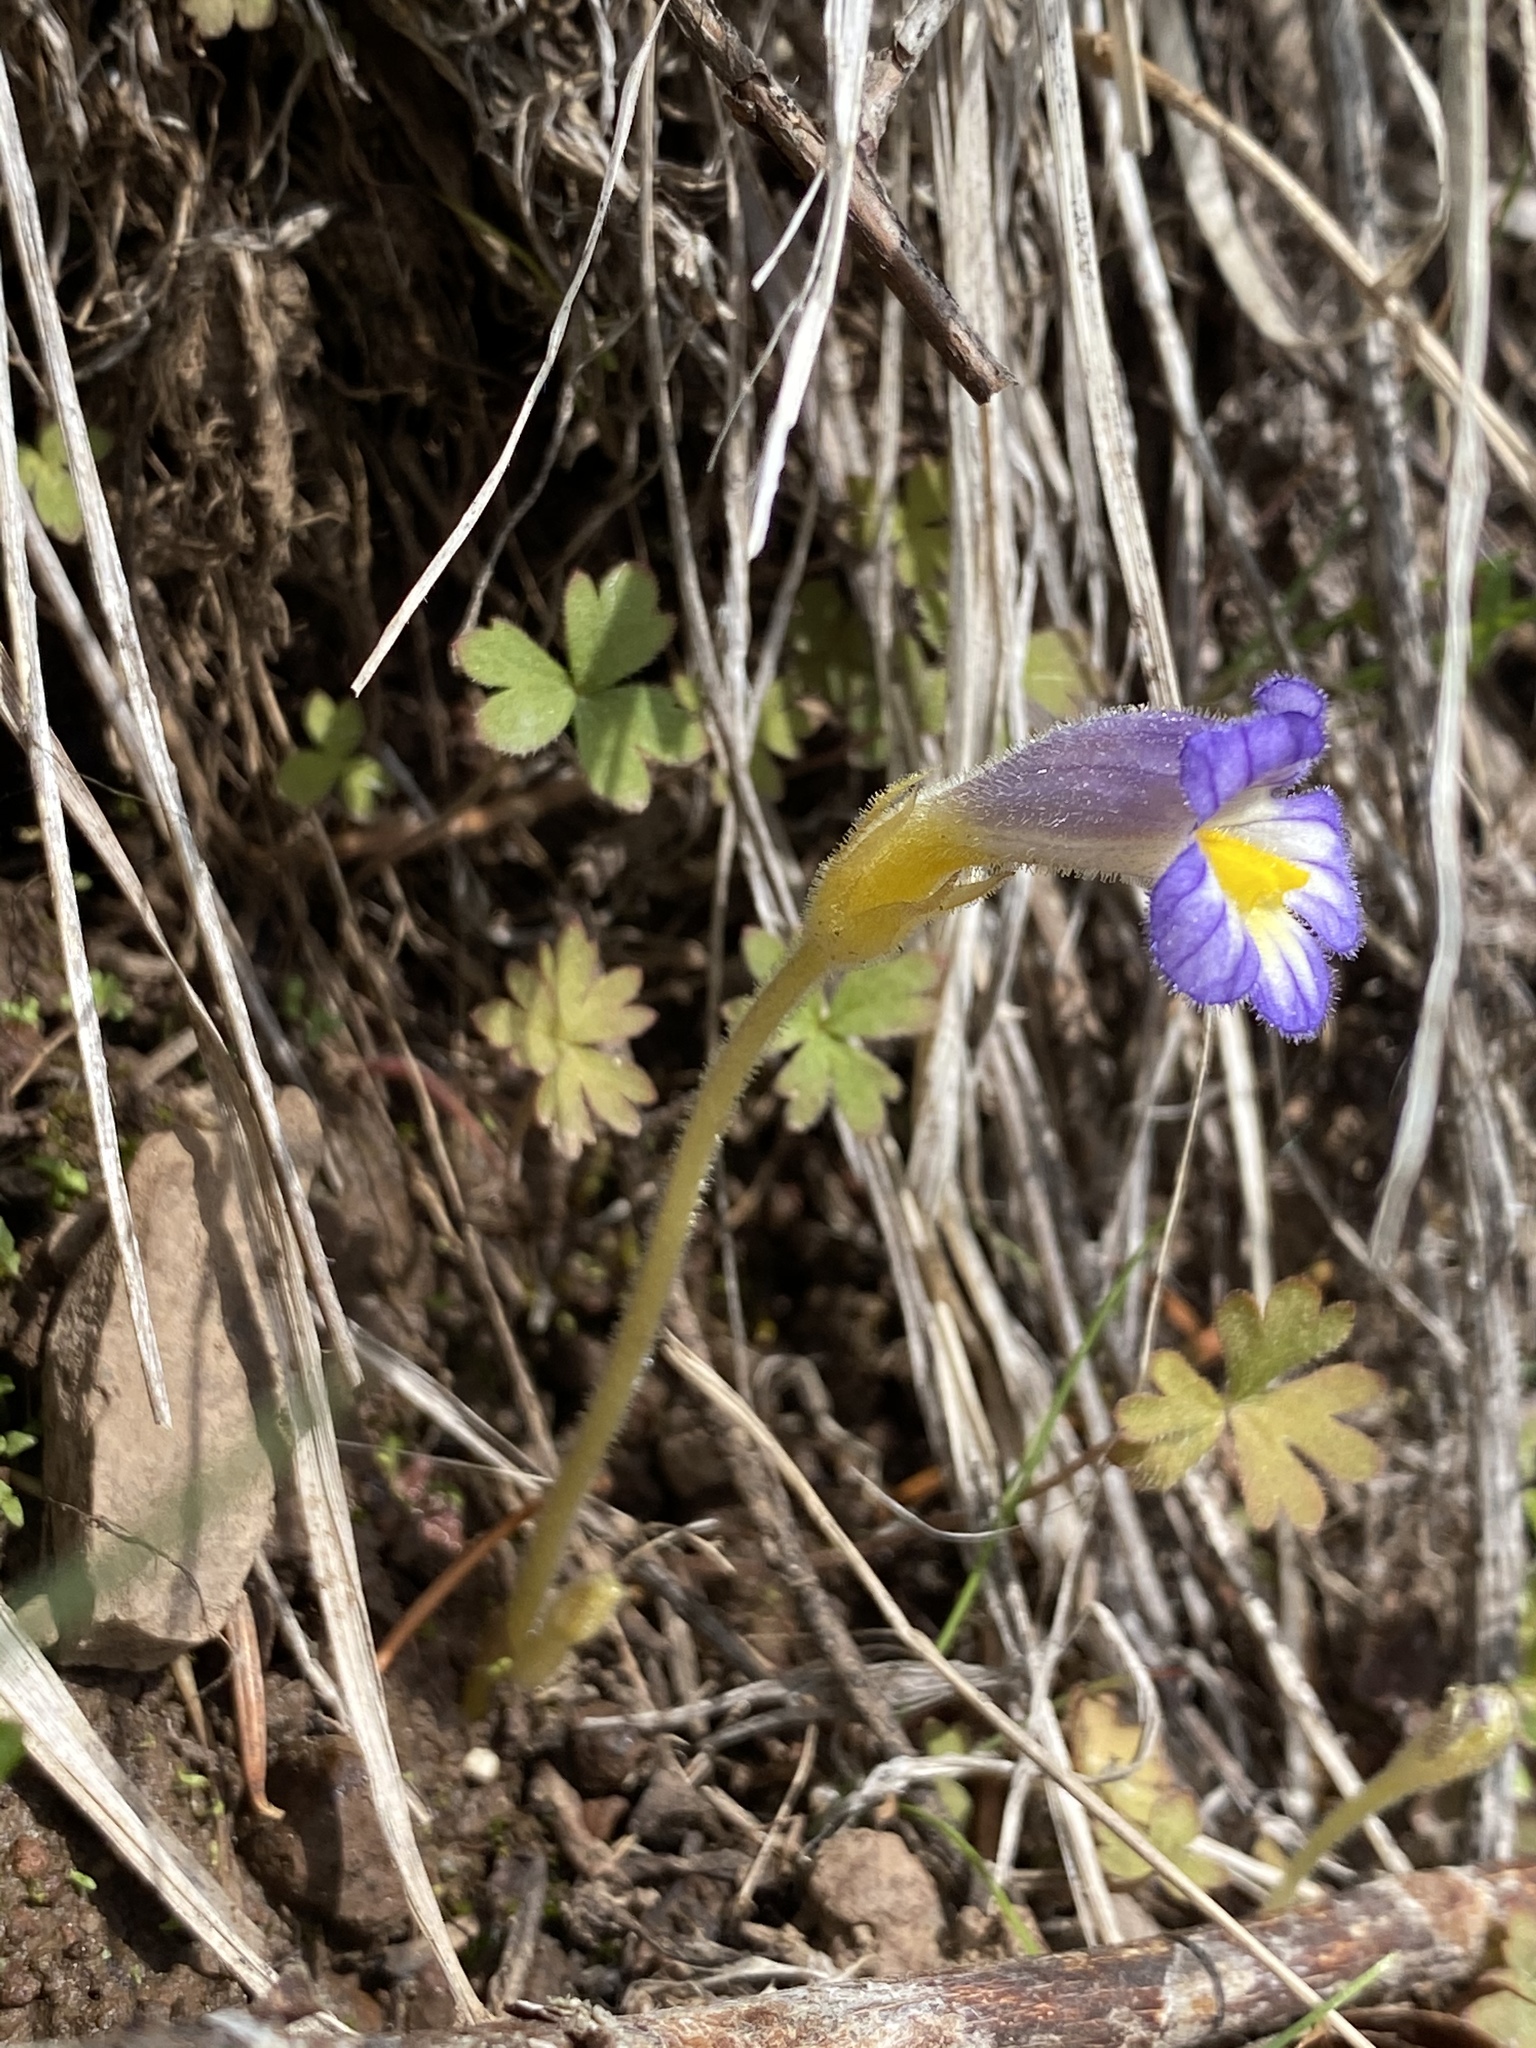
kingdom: Plantae
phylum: Tracheophyta
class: Magnoliopsida
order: Lamiales
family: Orobanchaceae
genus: Aphyllon
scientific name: Aphyllon uniflorum
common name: One-flowered broomrape
